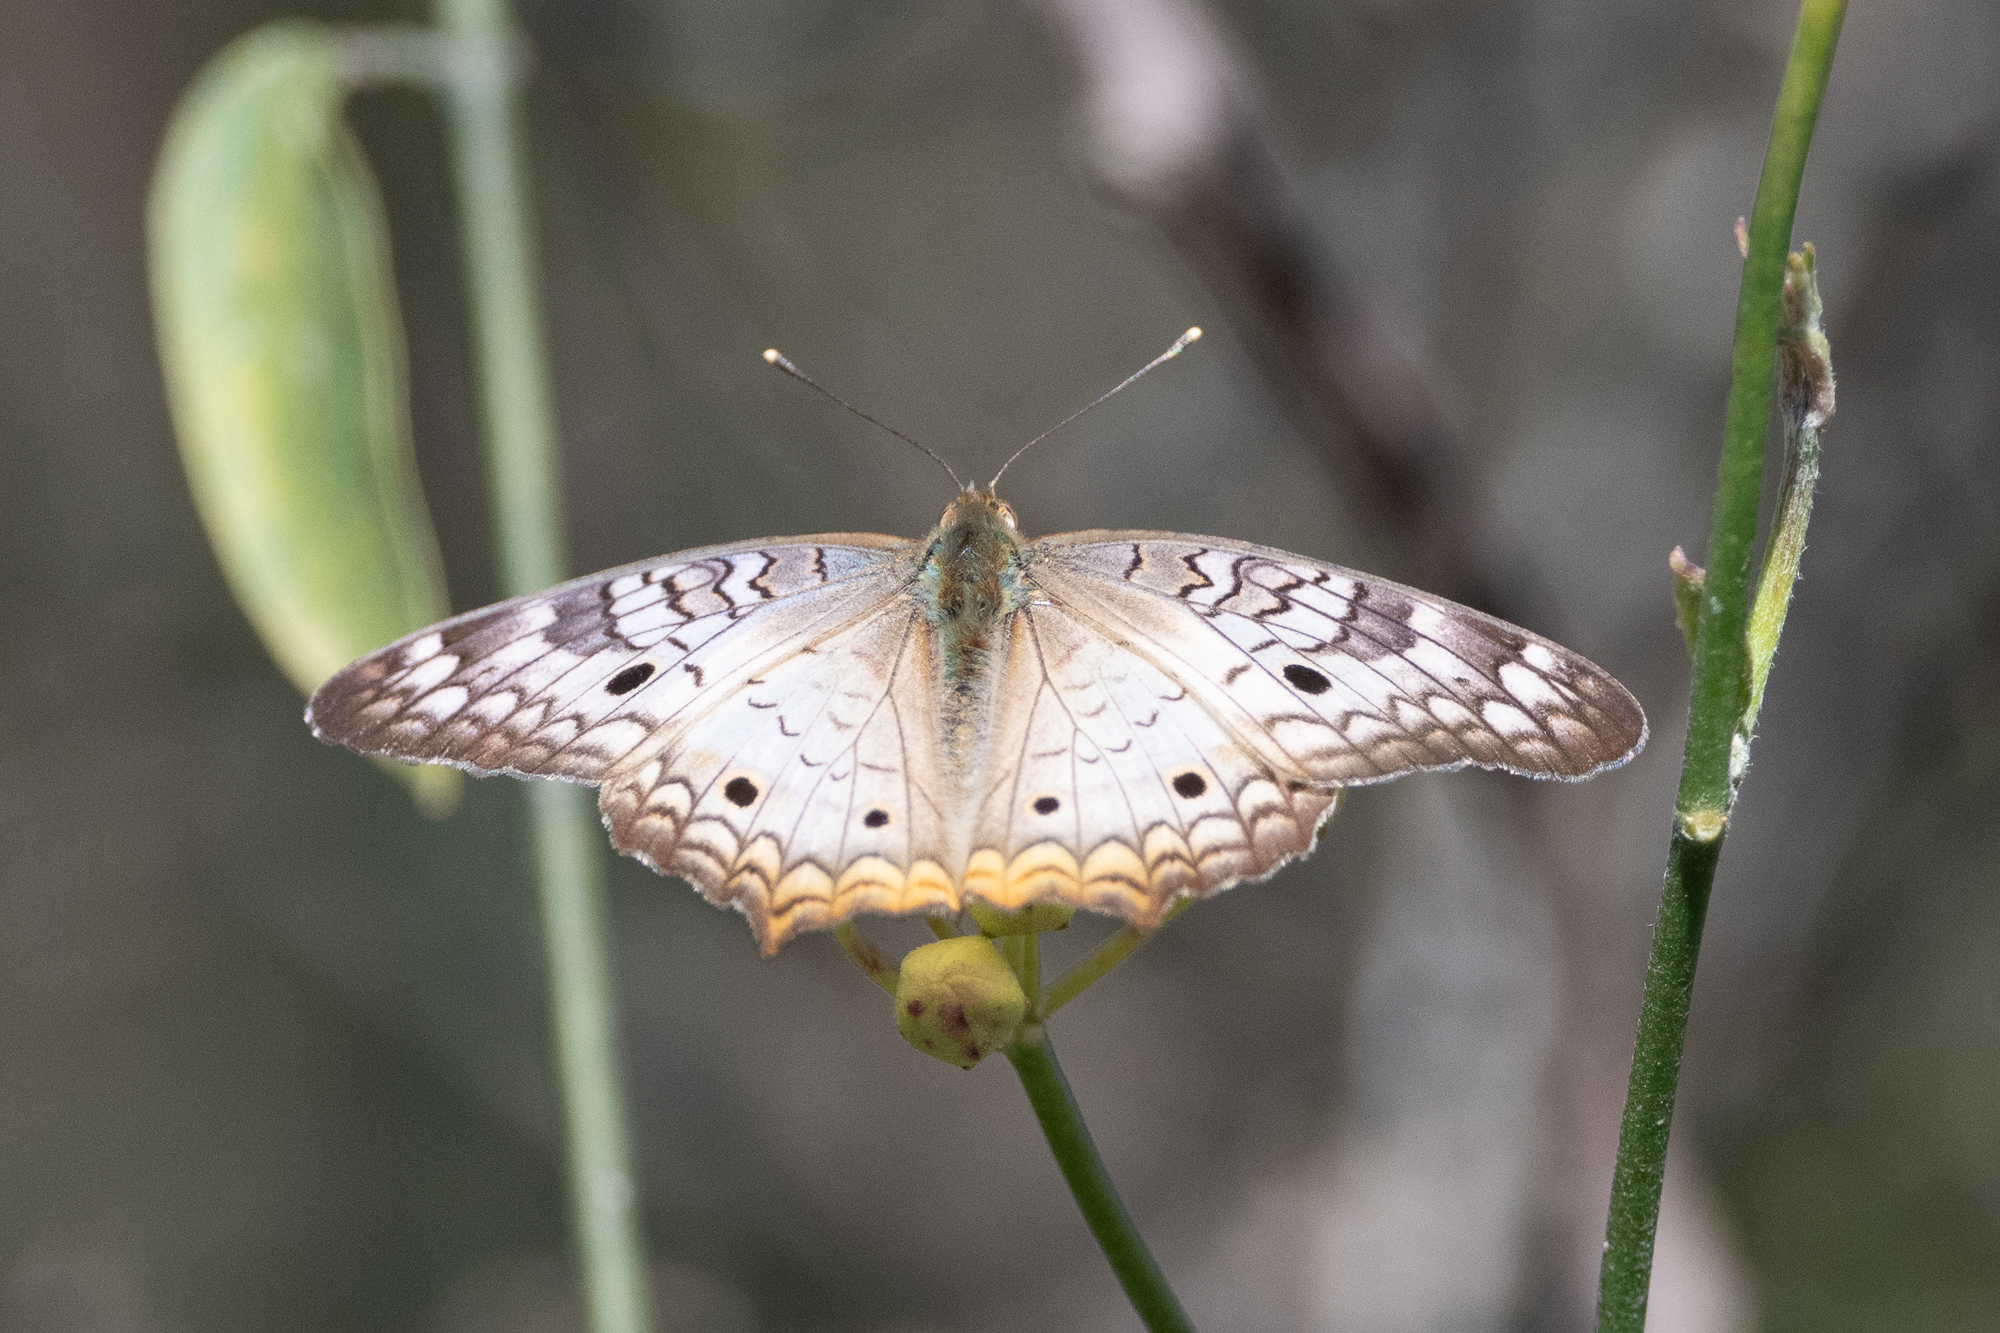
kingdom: Animalia
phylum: Arthropoda
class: Insecta
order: Lepidoptera
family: Nymphalidae
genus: Anartia
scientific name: Anartia jatrophae
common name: White peacock
